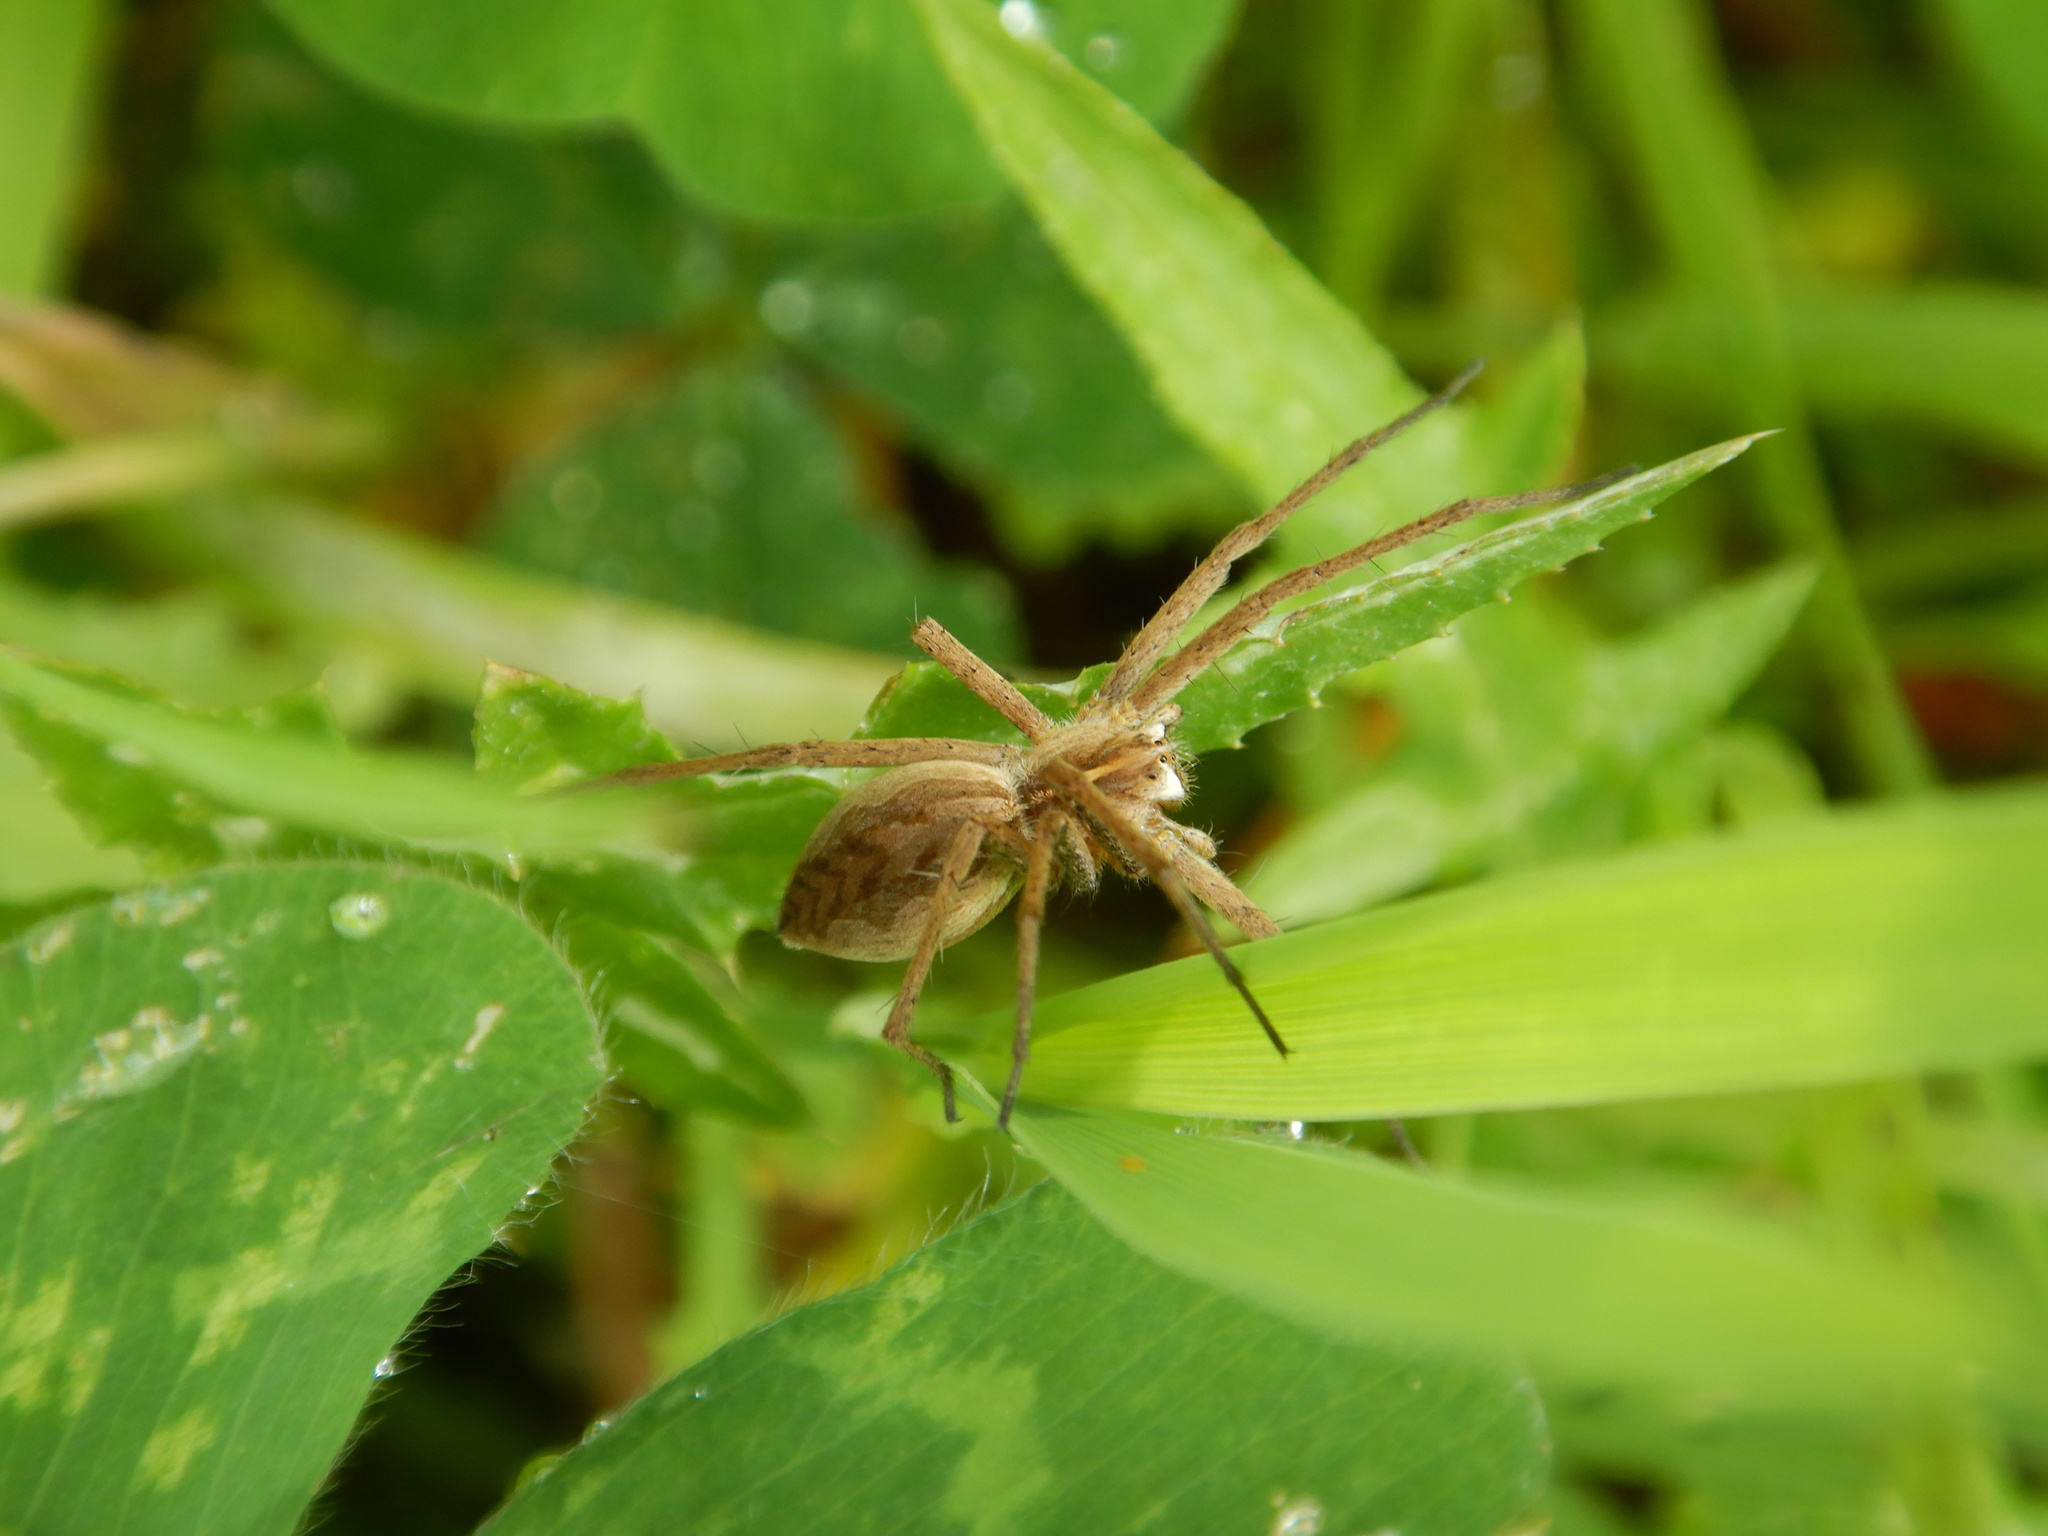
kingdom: Animalia
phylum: Arthropoda
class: Arachnida
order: Araneae
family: Pisauridae
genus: Pisaura
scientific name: Pisaura mirabilis
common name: Tent spider
